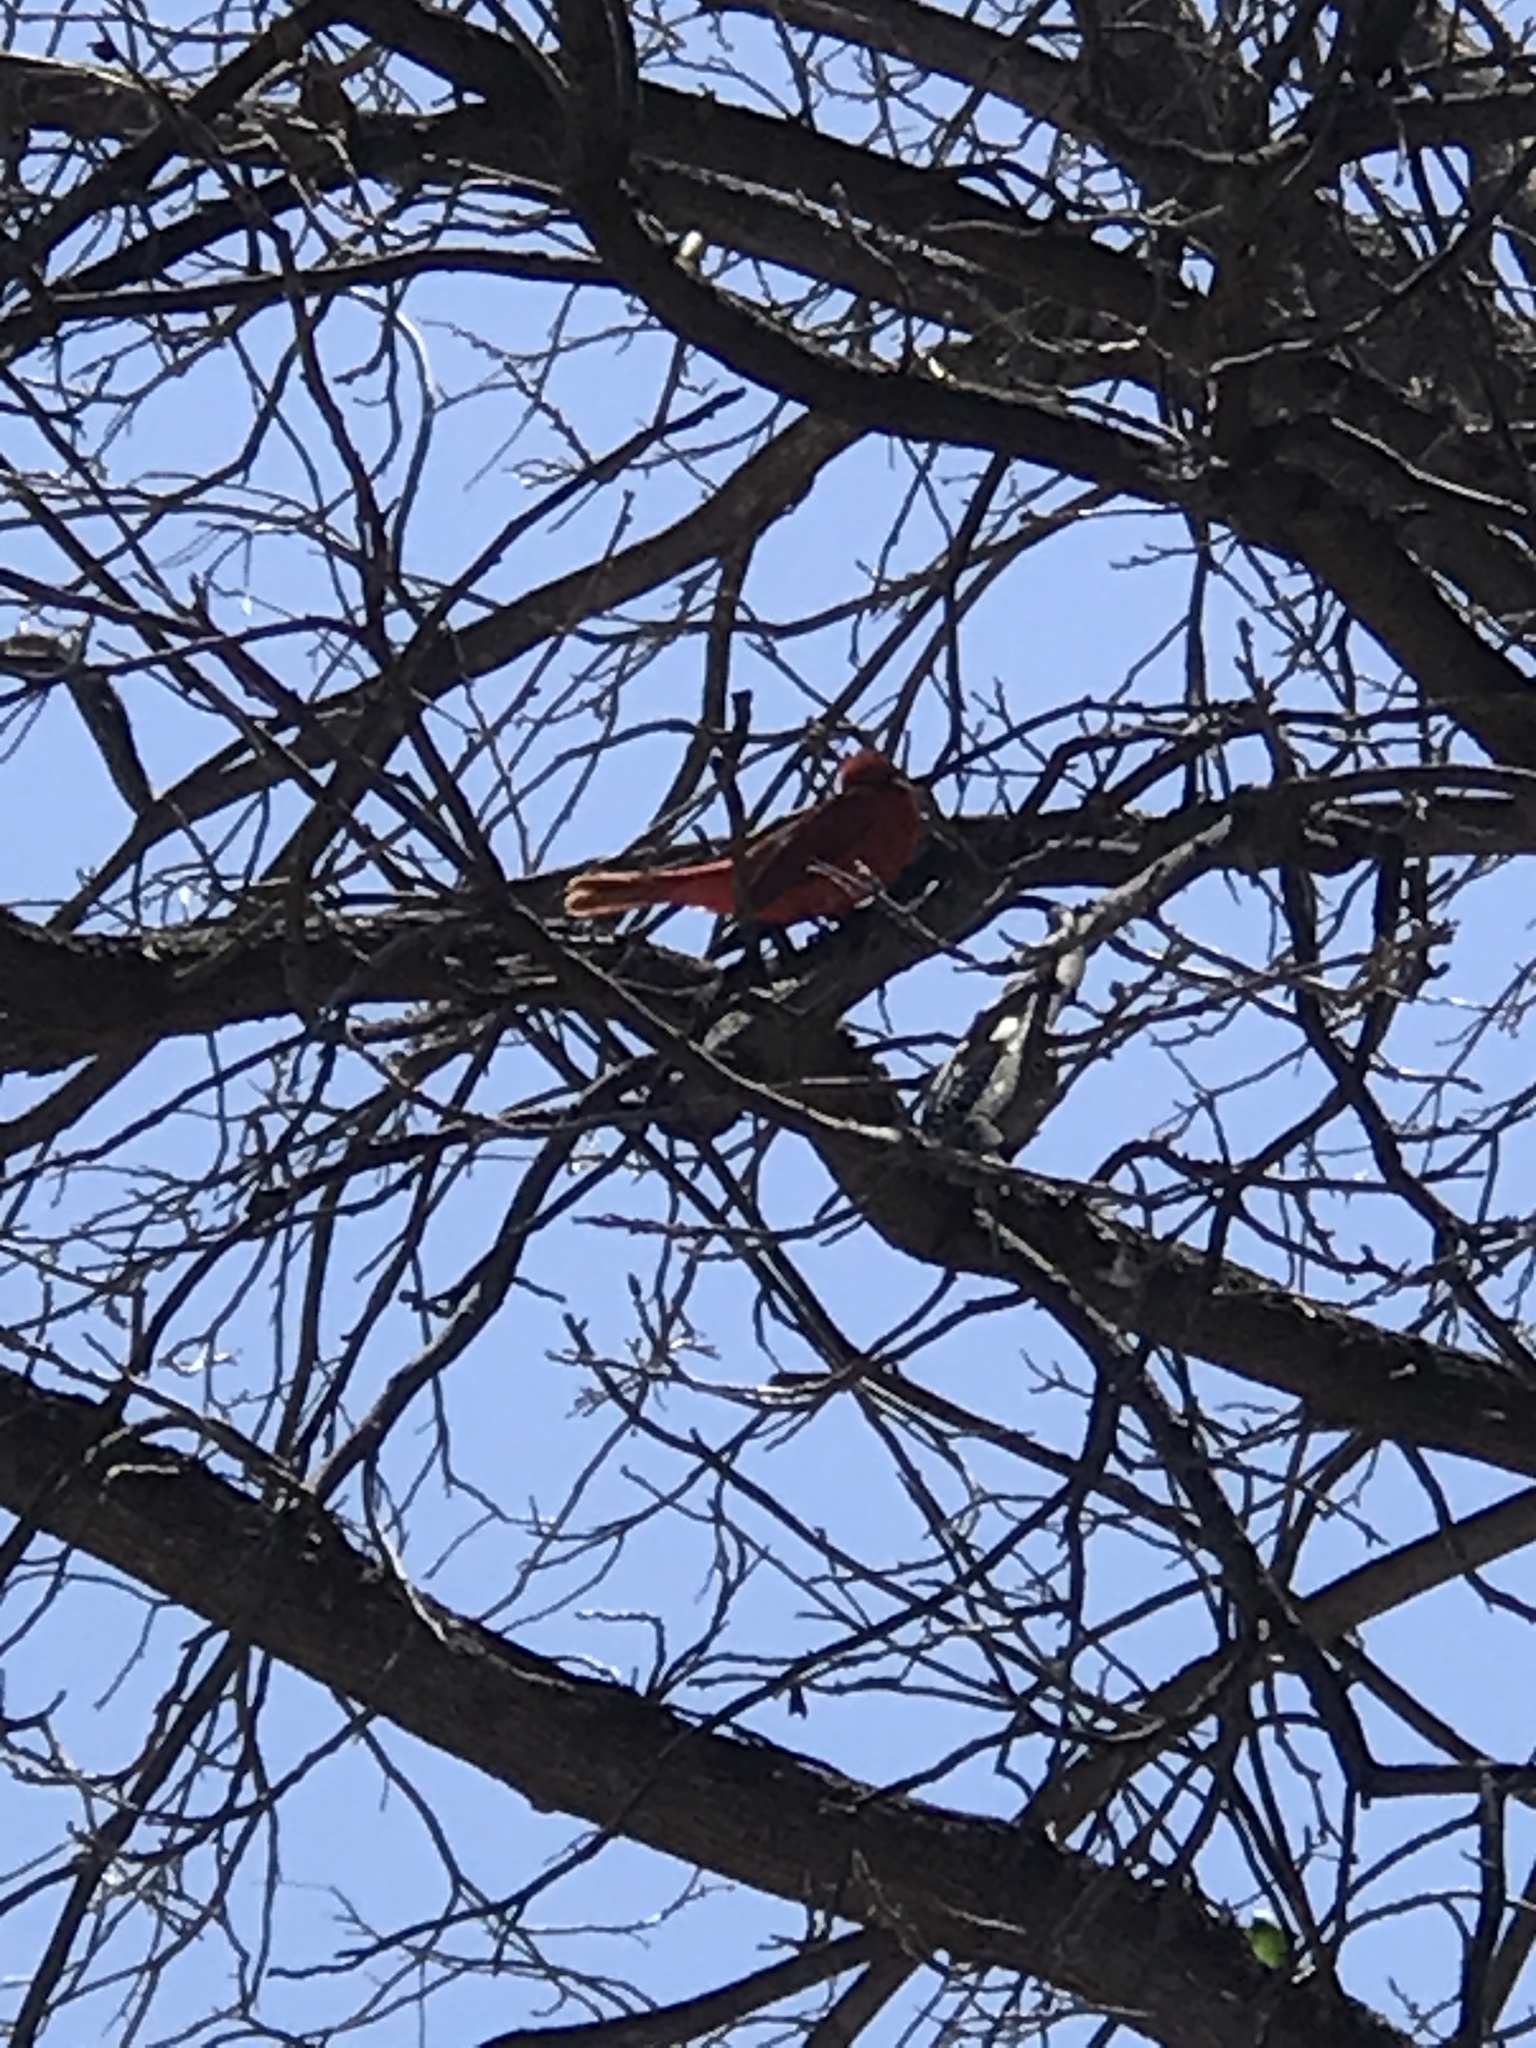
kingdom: Animalia
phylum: Chordata
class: Aves
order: Passeriformes
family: Cardinalidae
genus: Piranga
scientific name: Piranga rubra
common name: Summer tanager
